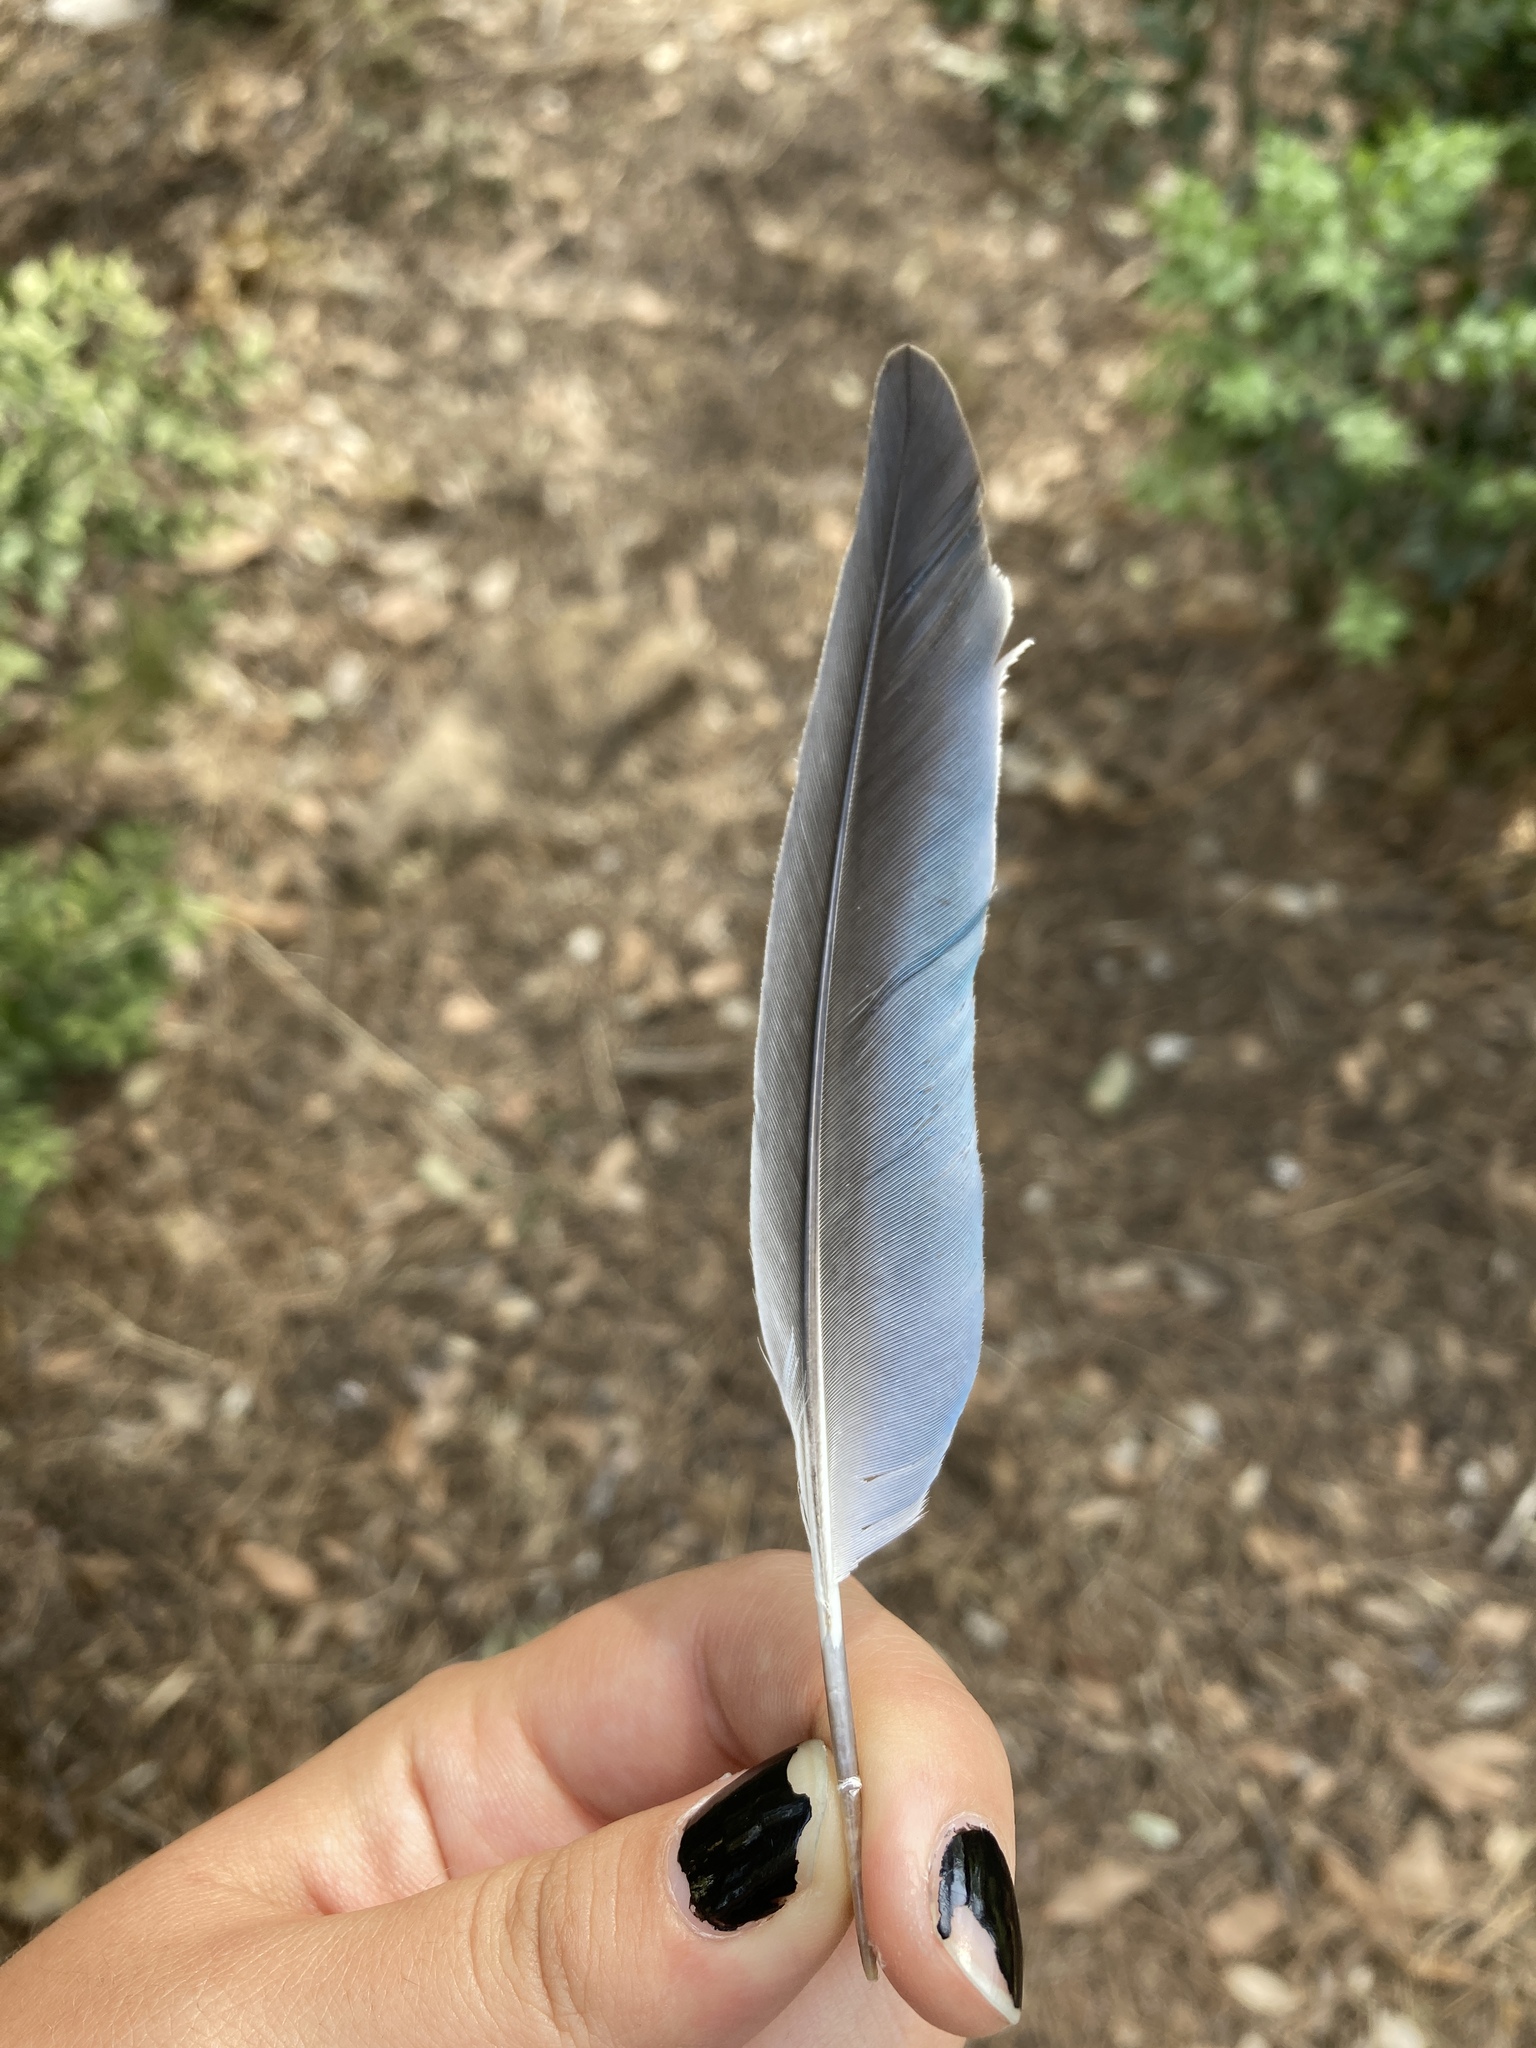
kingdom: Animalia
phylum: Chordata
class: Aves
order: Psittaciformes
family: Psittacidae
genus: Myiopsitta
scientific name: Myiopsitta monachus
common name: Monk parakeet
